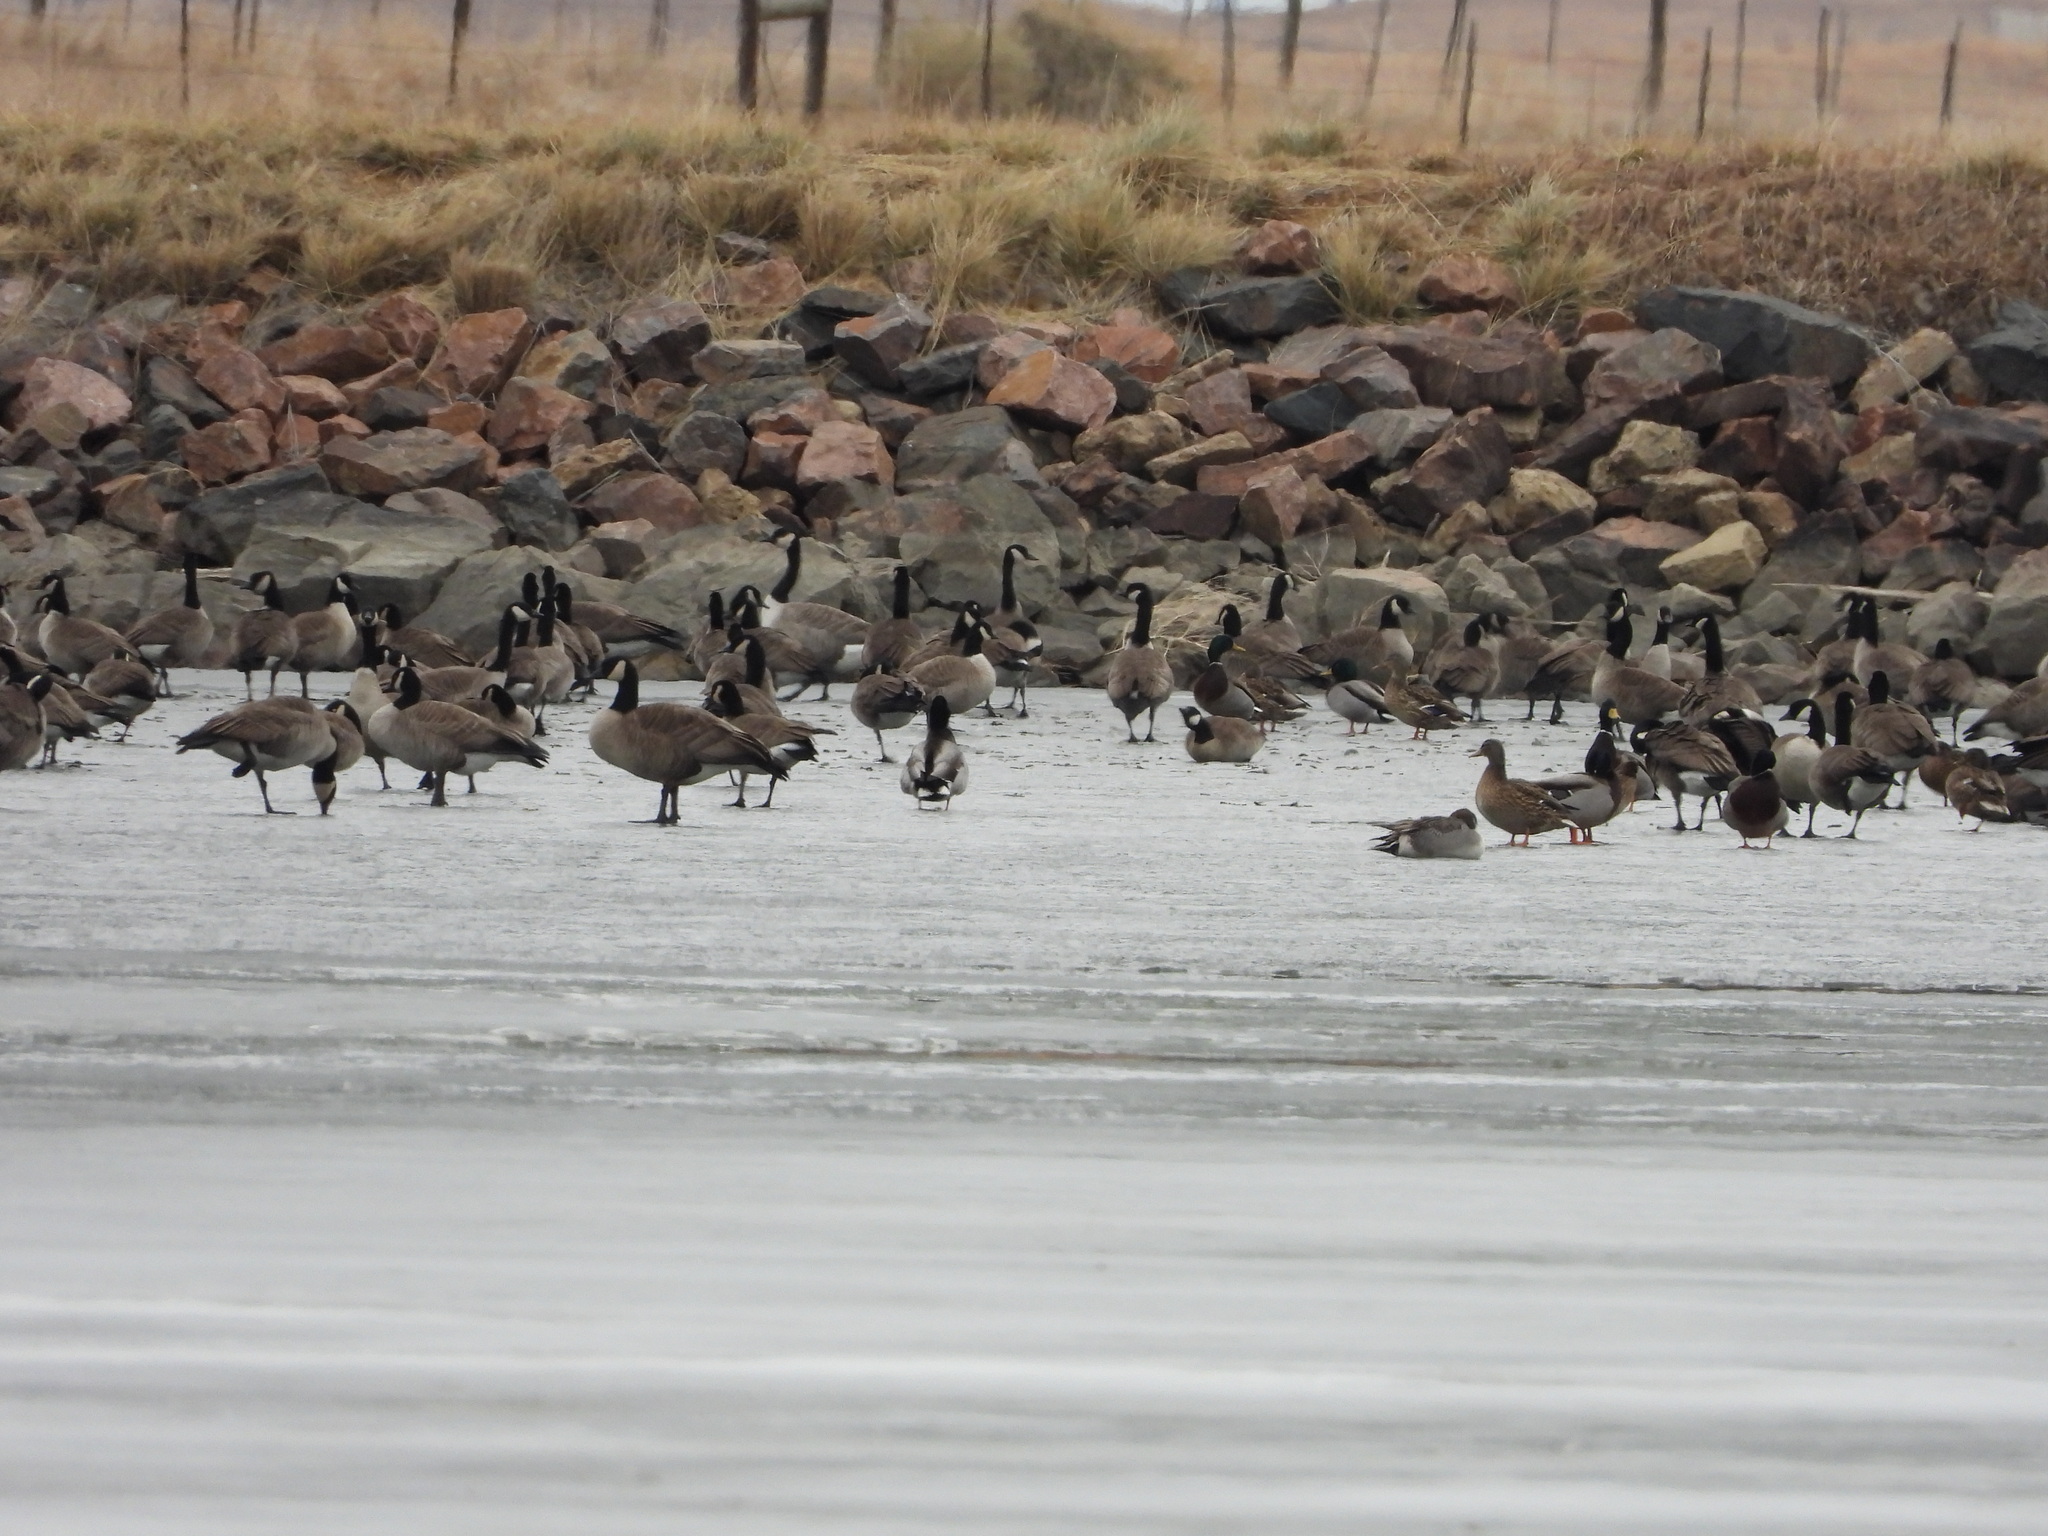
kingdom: Animalia
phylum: Chordata
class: Aves
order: Anseriformes
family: Anatidae
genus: Anas
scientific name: Anas platyrhynchos
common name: Mallard
